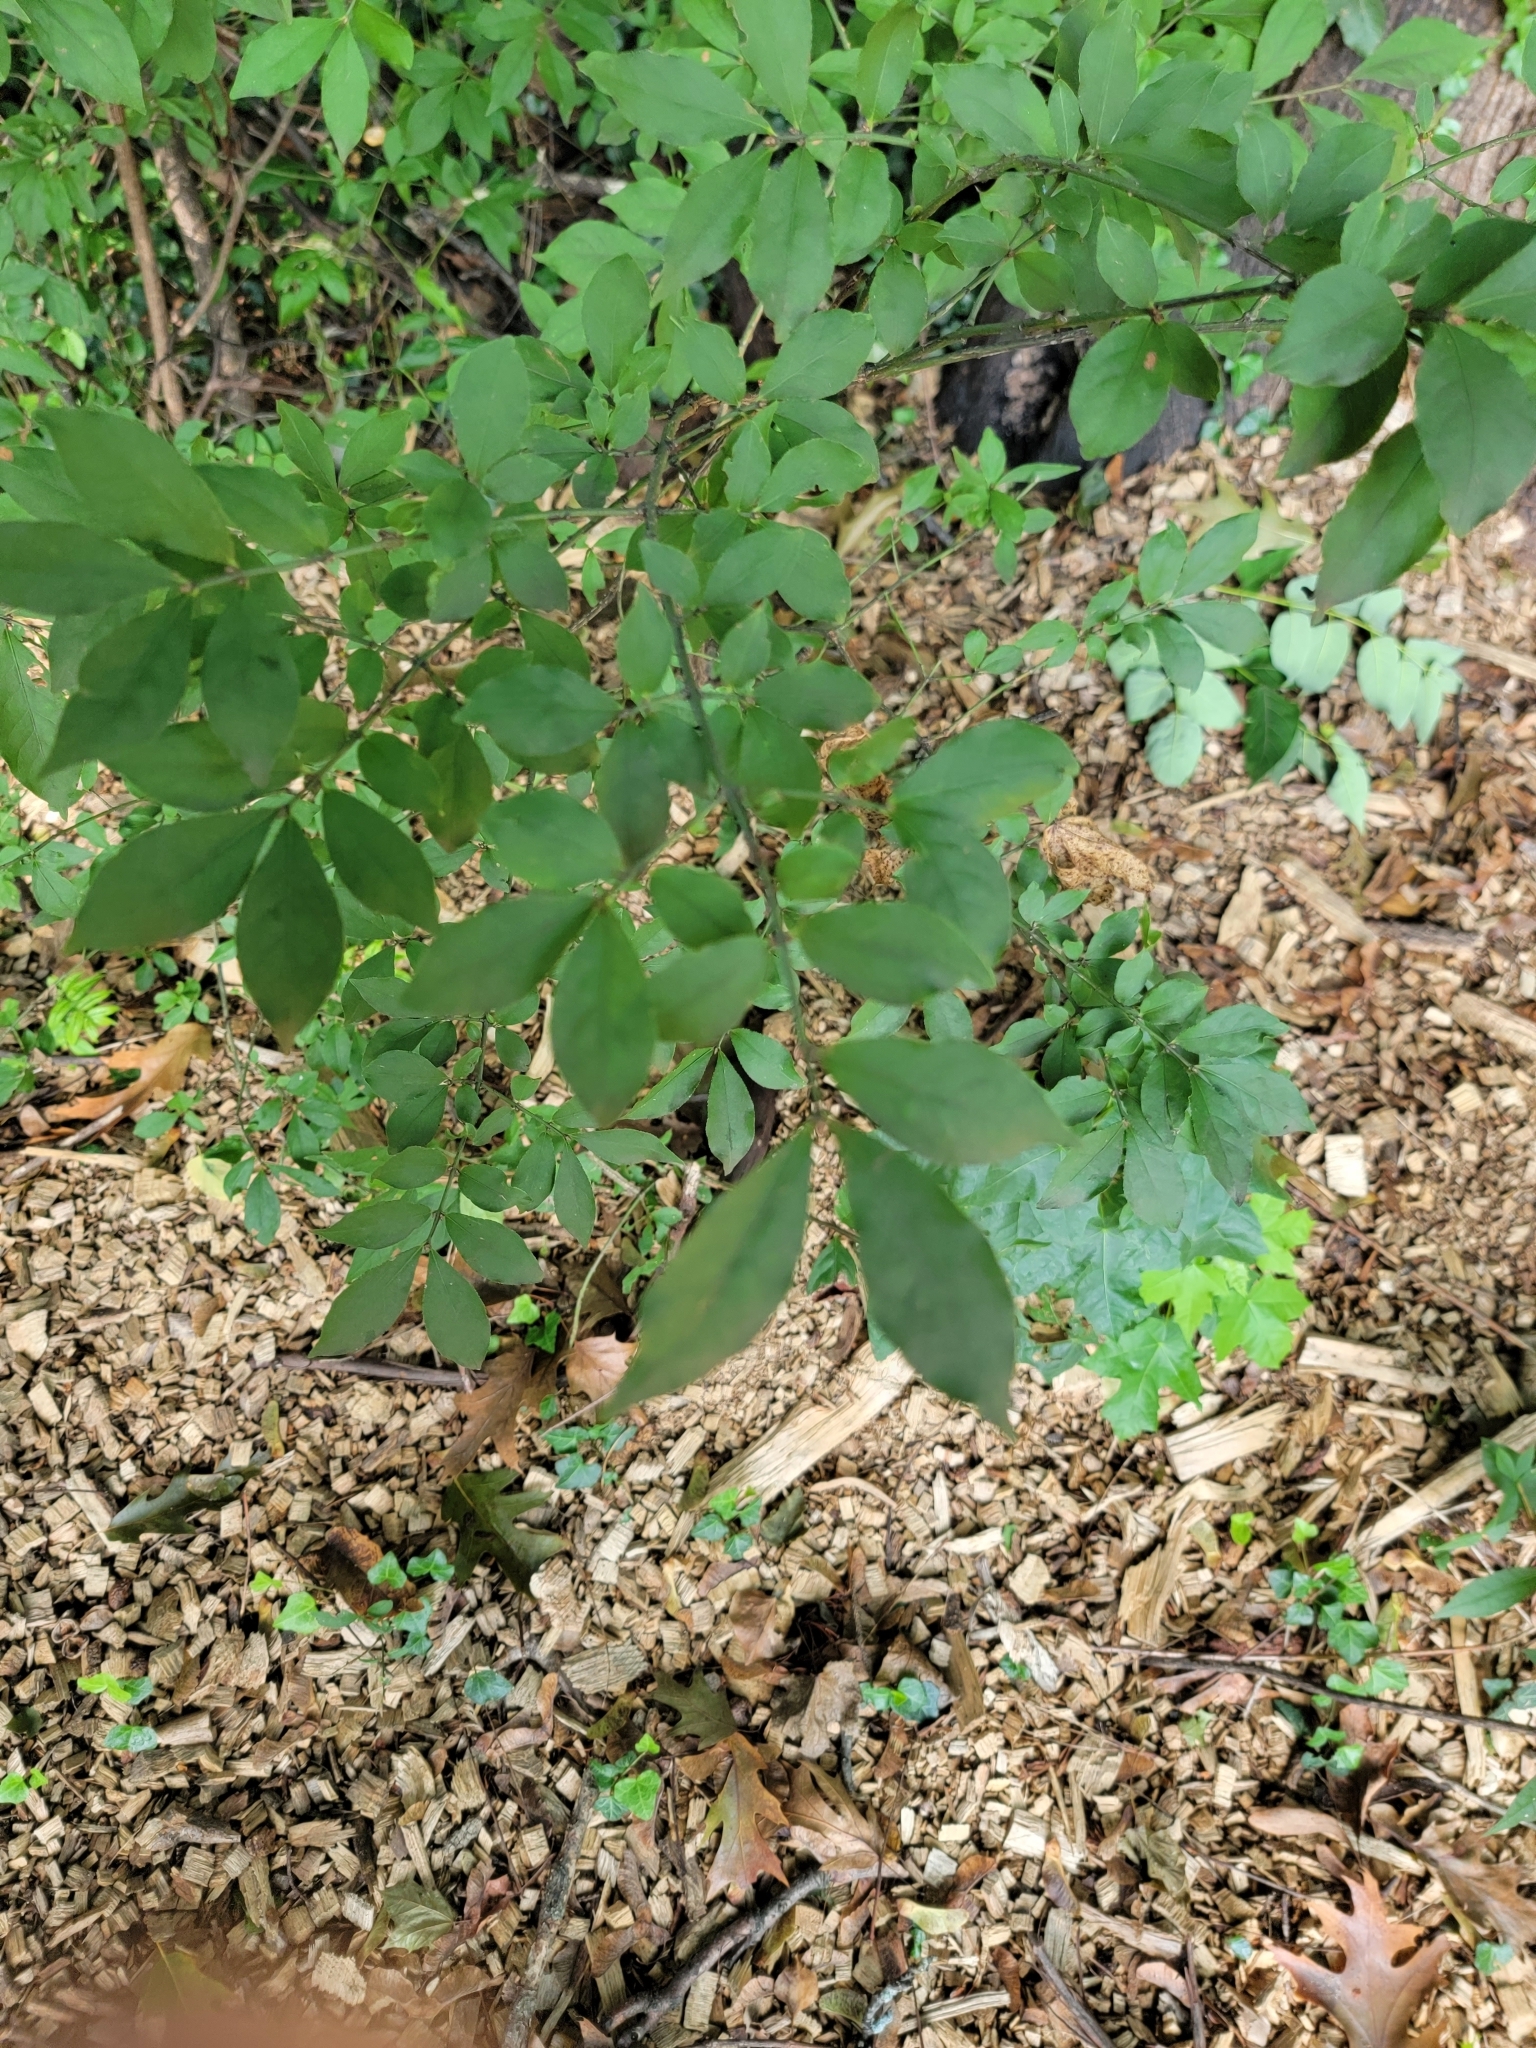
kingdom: Plantae
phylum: Tracheophyta
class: Magnoliopsida
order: Celastrales
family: Celastraceae
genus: Euonymus
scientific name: Euonymus alatus
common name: Winged euonymus
